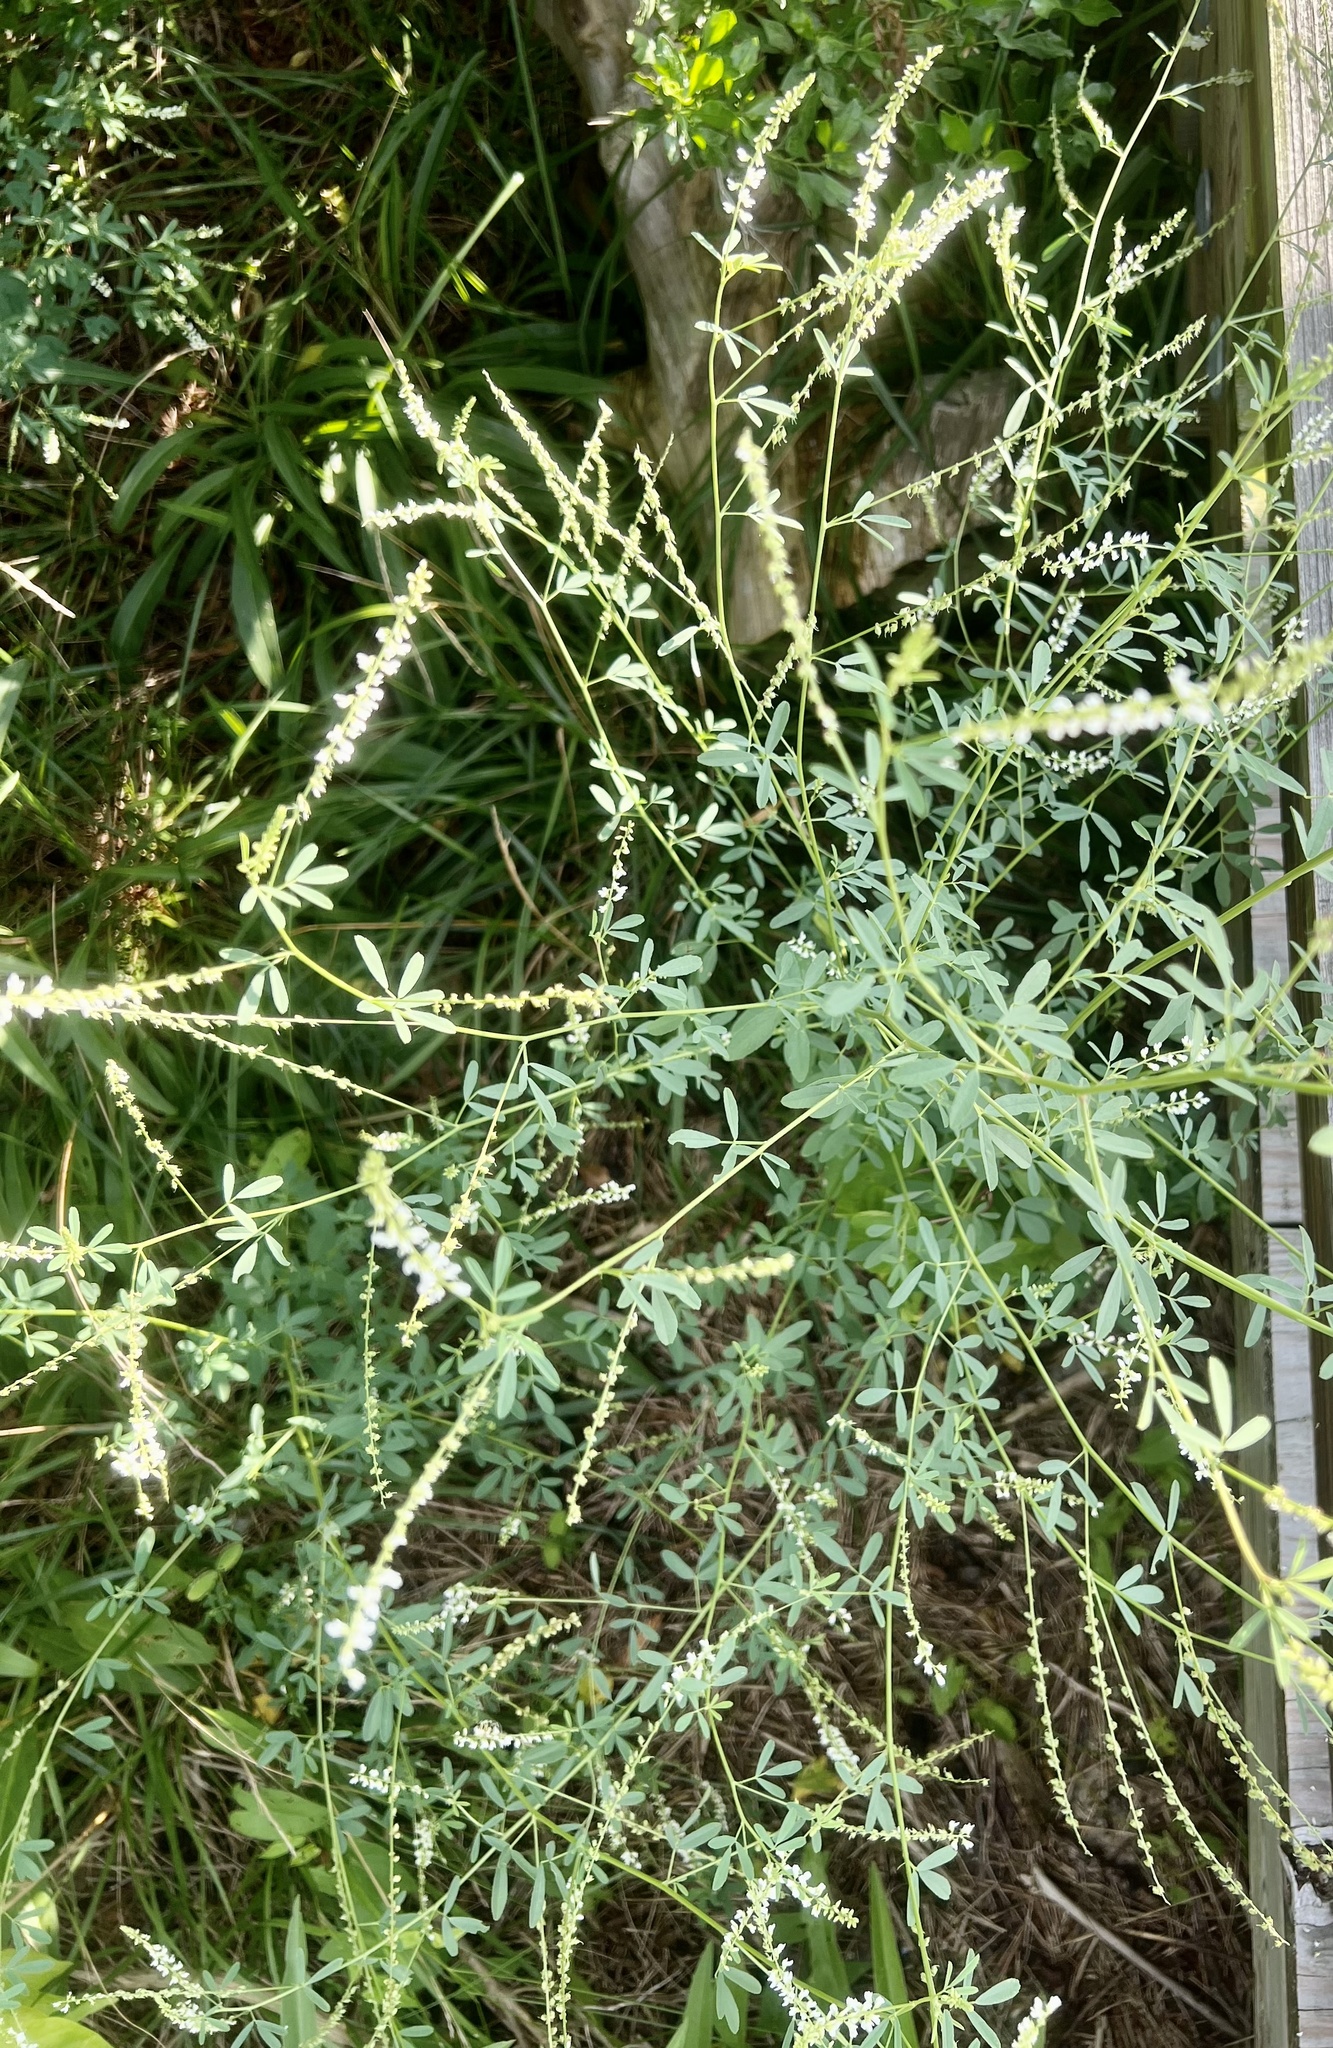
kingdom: Plantae
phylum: Tracheophyta
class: Magnoliopsida
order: Fabales
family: Fabaceae
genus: Melilotus
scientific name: Melilotus albus
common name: White melilot
